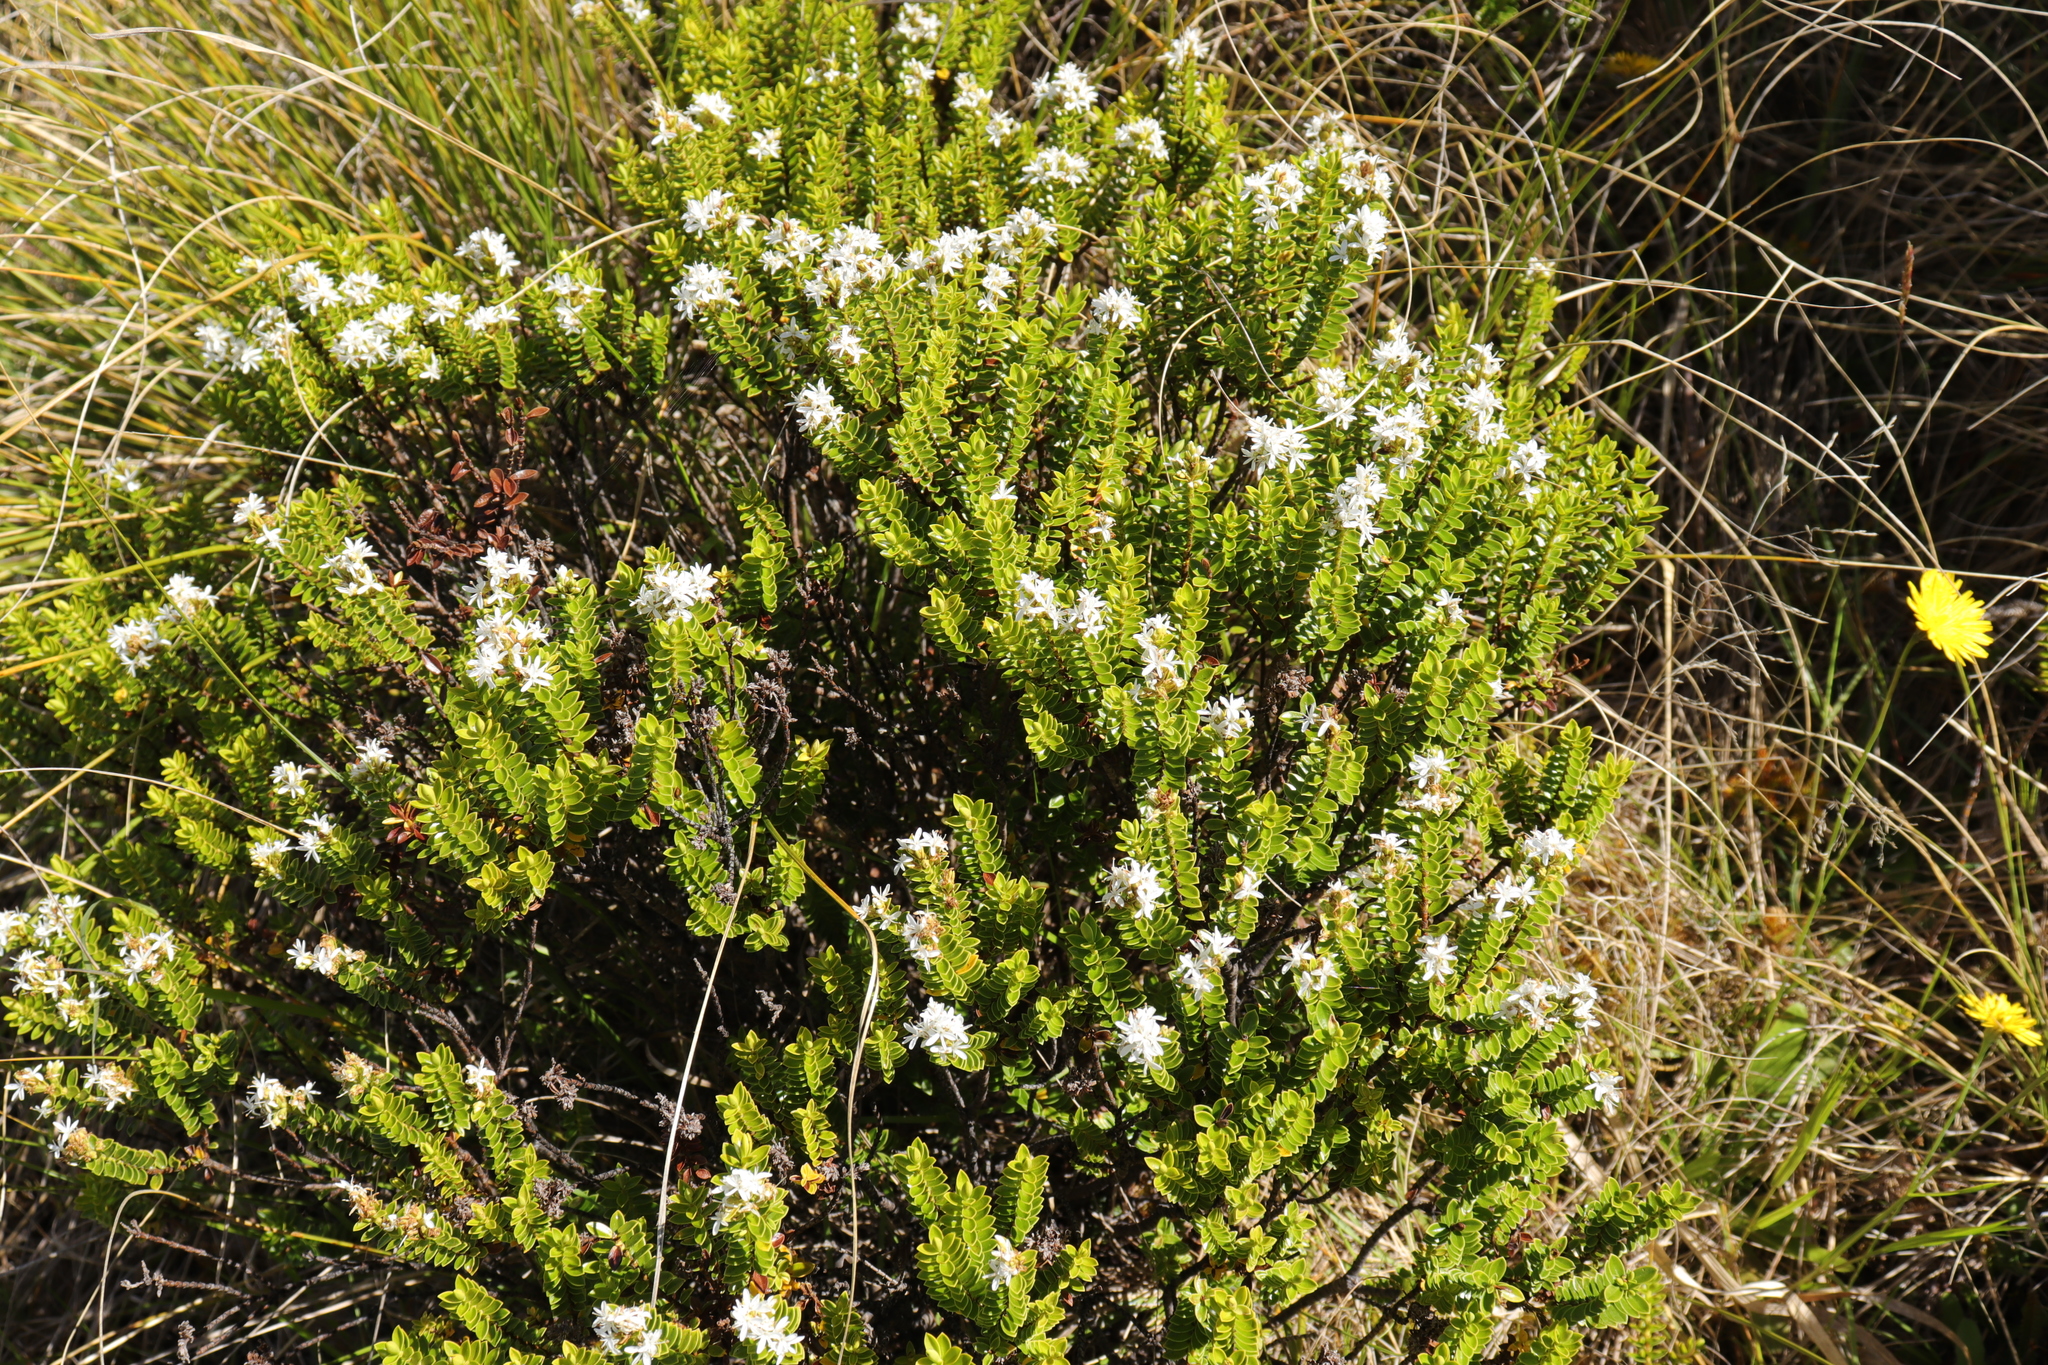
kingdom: Plantae
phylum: Tracheophyta
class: Magnoliopsida
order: Lamiales
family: Plantaginaceae
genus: Veronica
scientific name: Veronica odora
